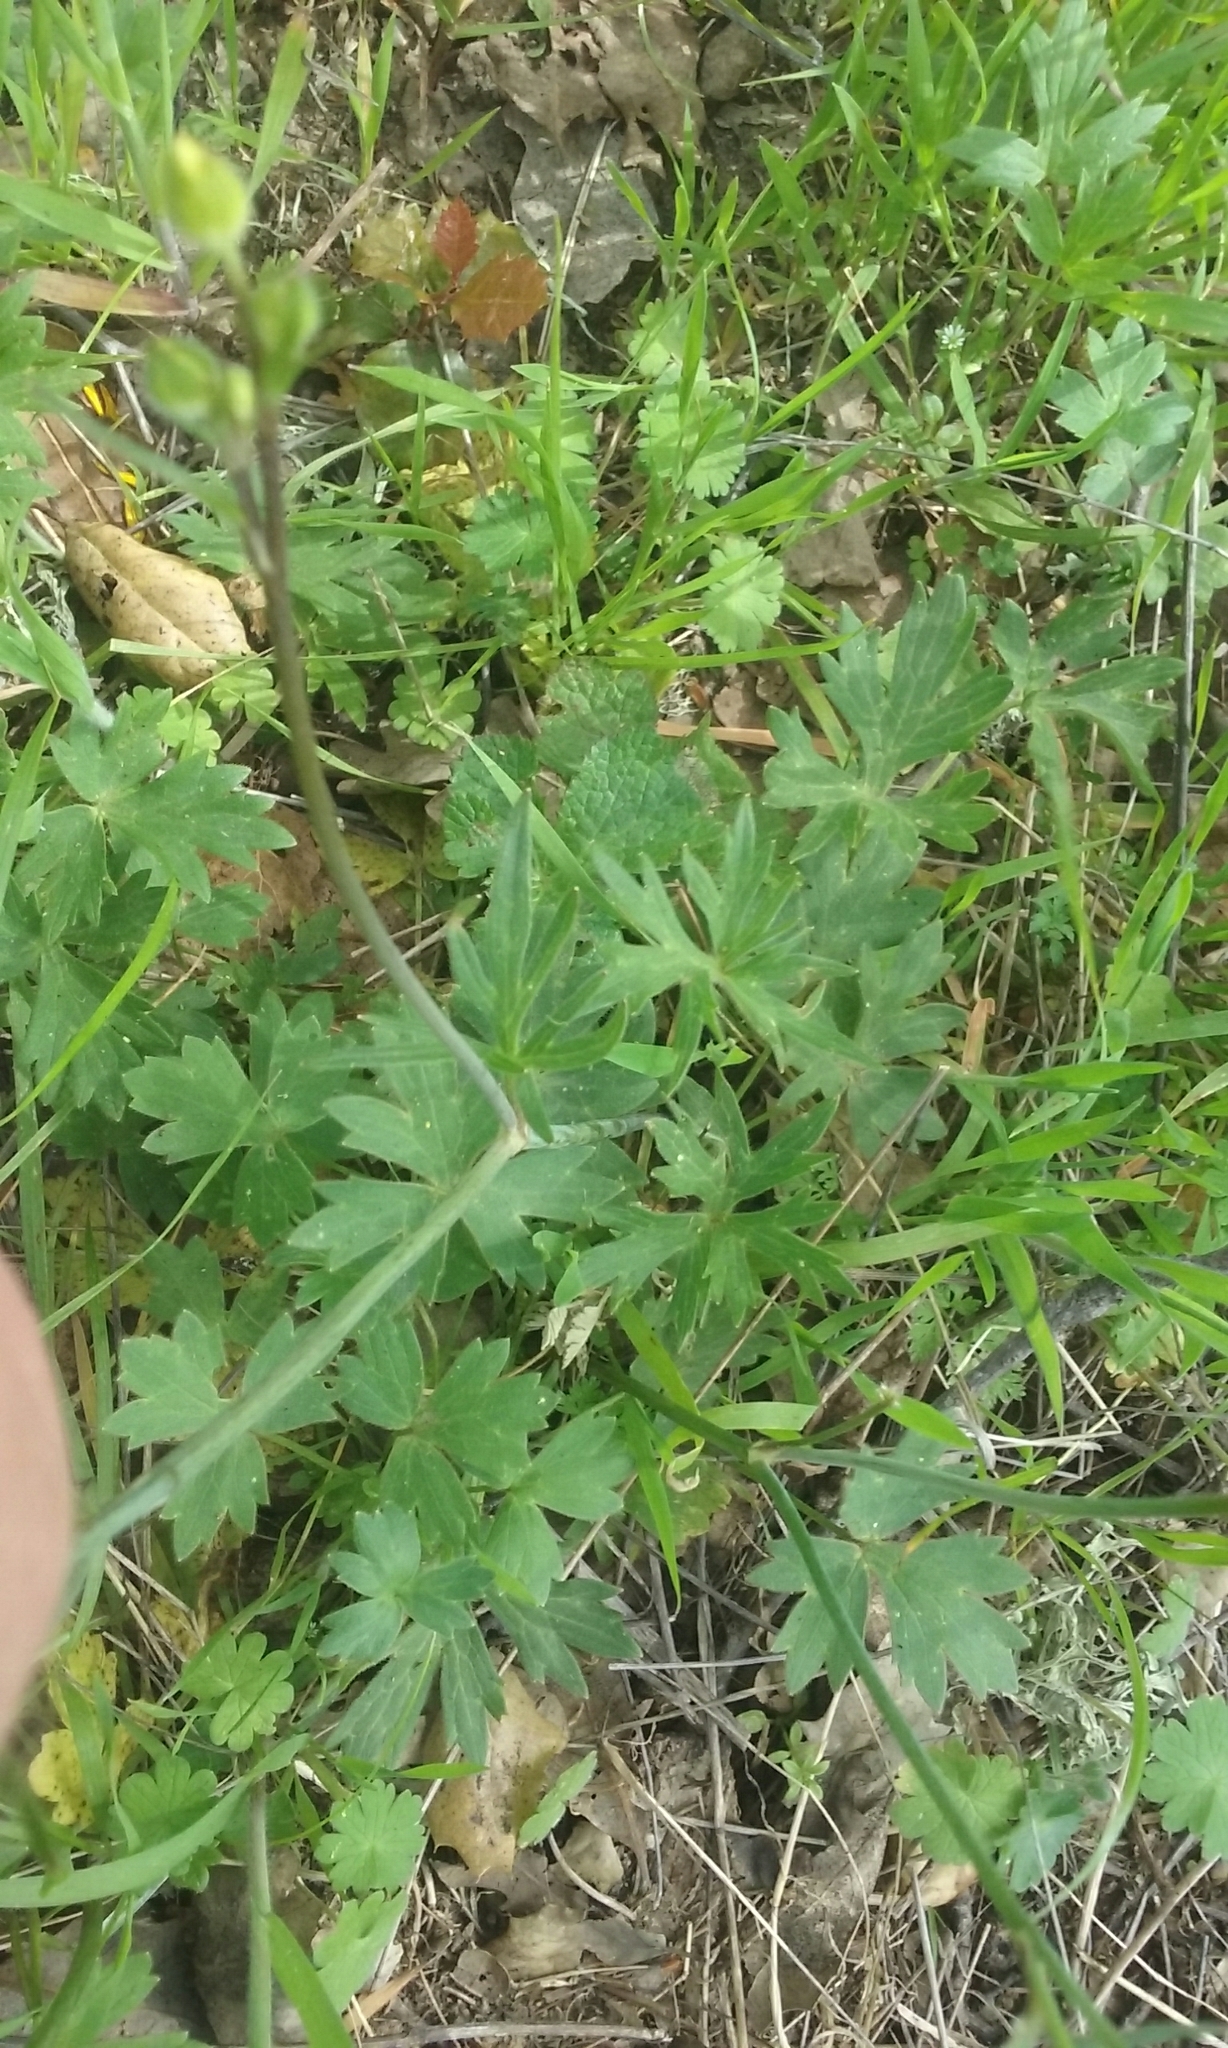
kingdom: Plantae
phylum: Tracheophyta
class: Magnoliopsida
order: Ranunculales
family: Ranunculaceae
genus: Ranunculus
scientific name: Ranunculus californicus
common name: California buttercup
